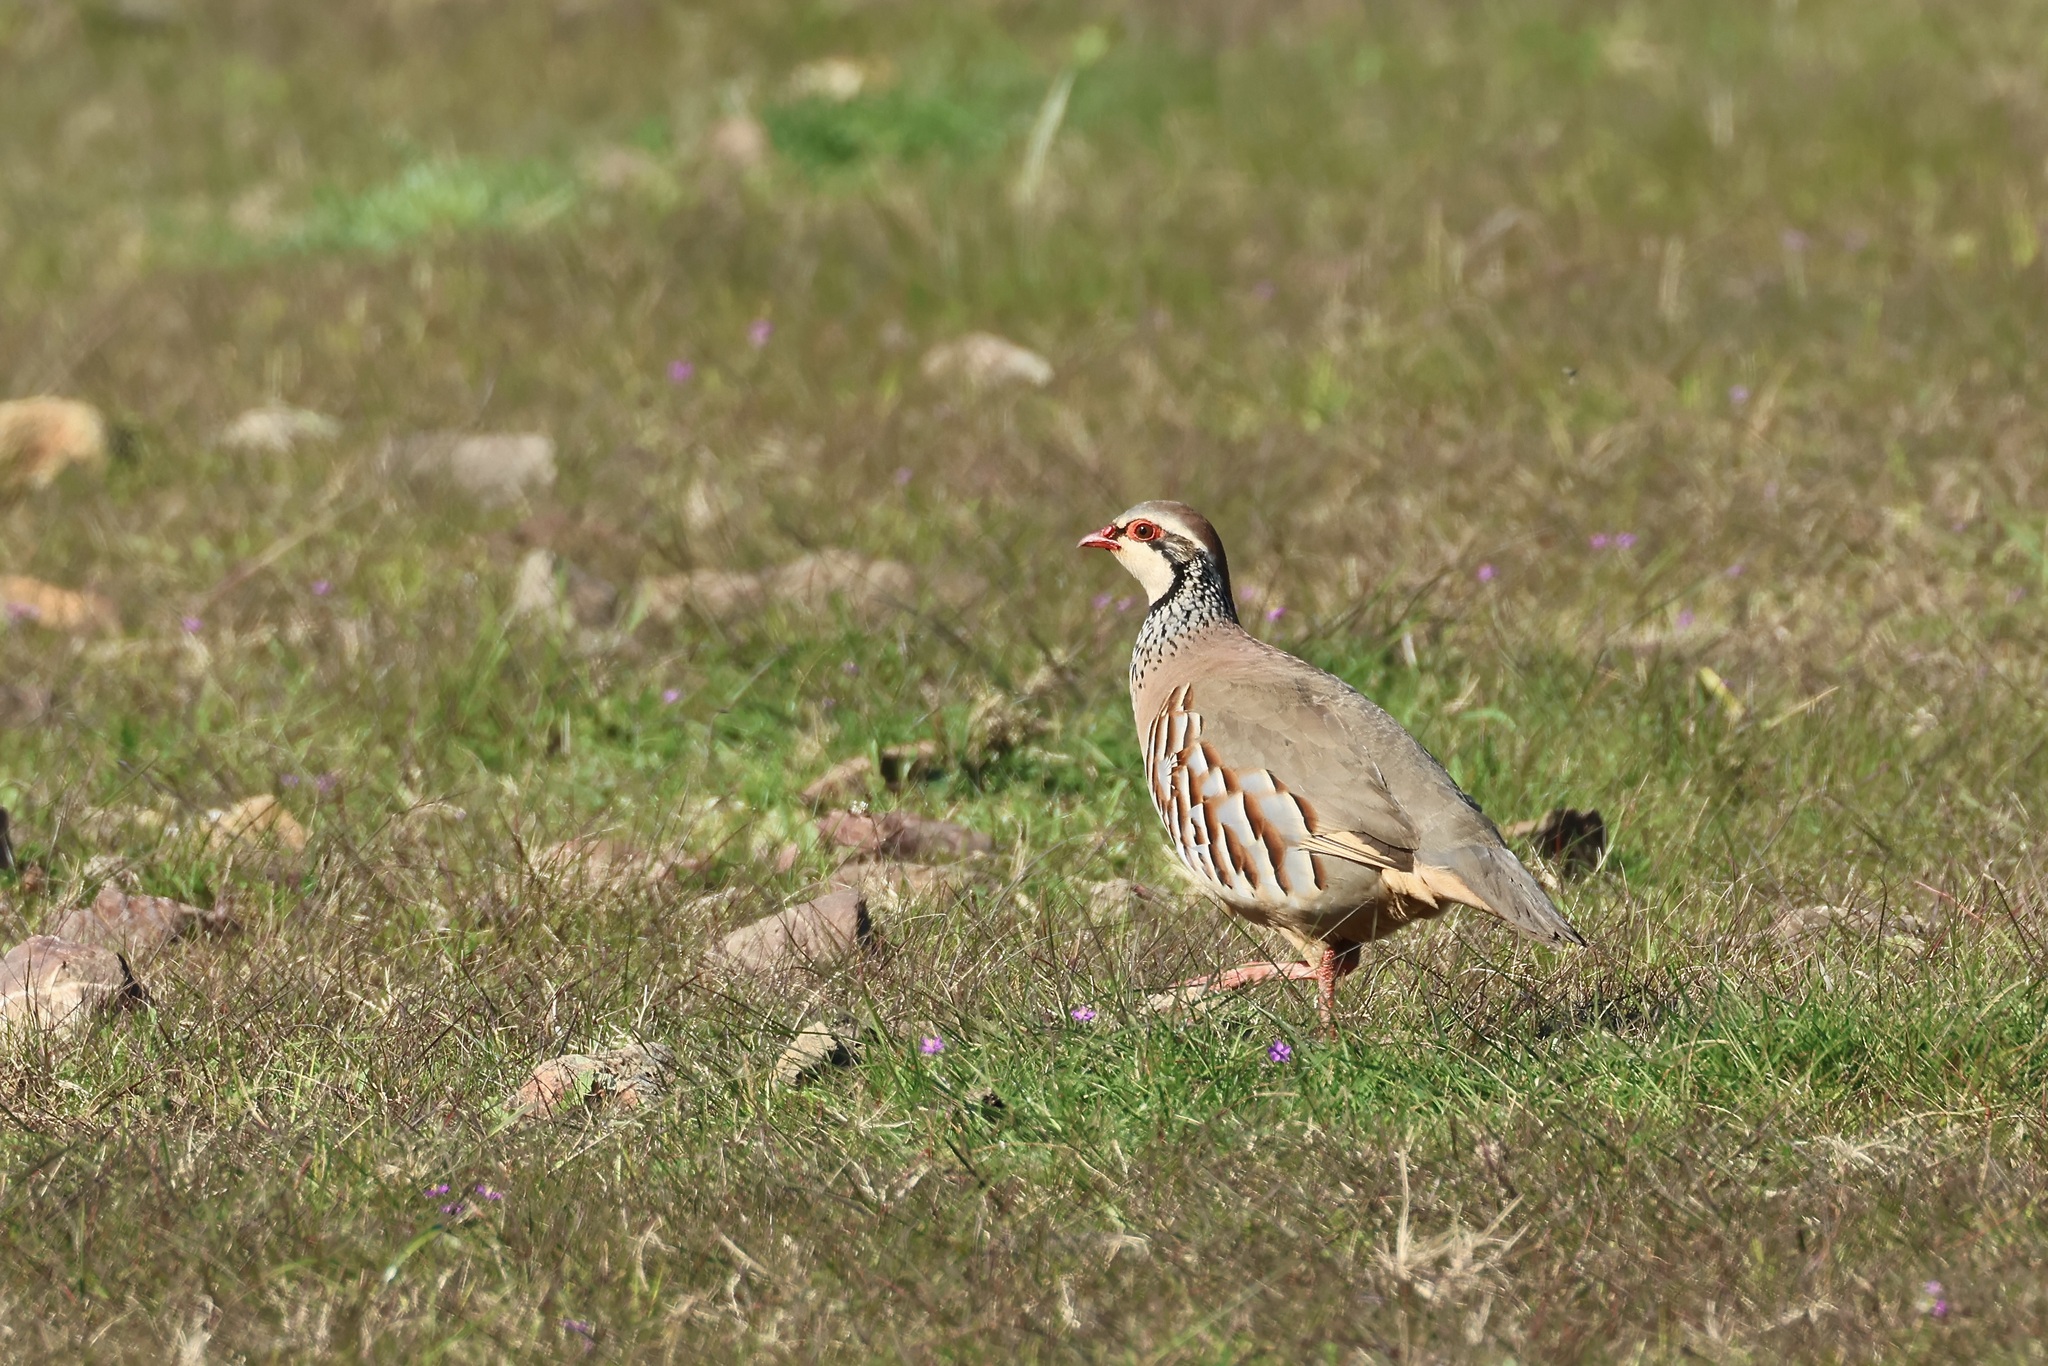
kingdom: Animalia
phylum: Chordata
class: Aves
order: Galliformes
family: Phasianidae
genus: Alectoris
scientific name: Alectoris rufa
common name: Red-legged partridge
